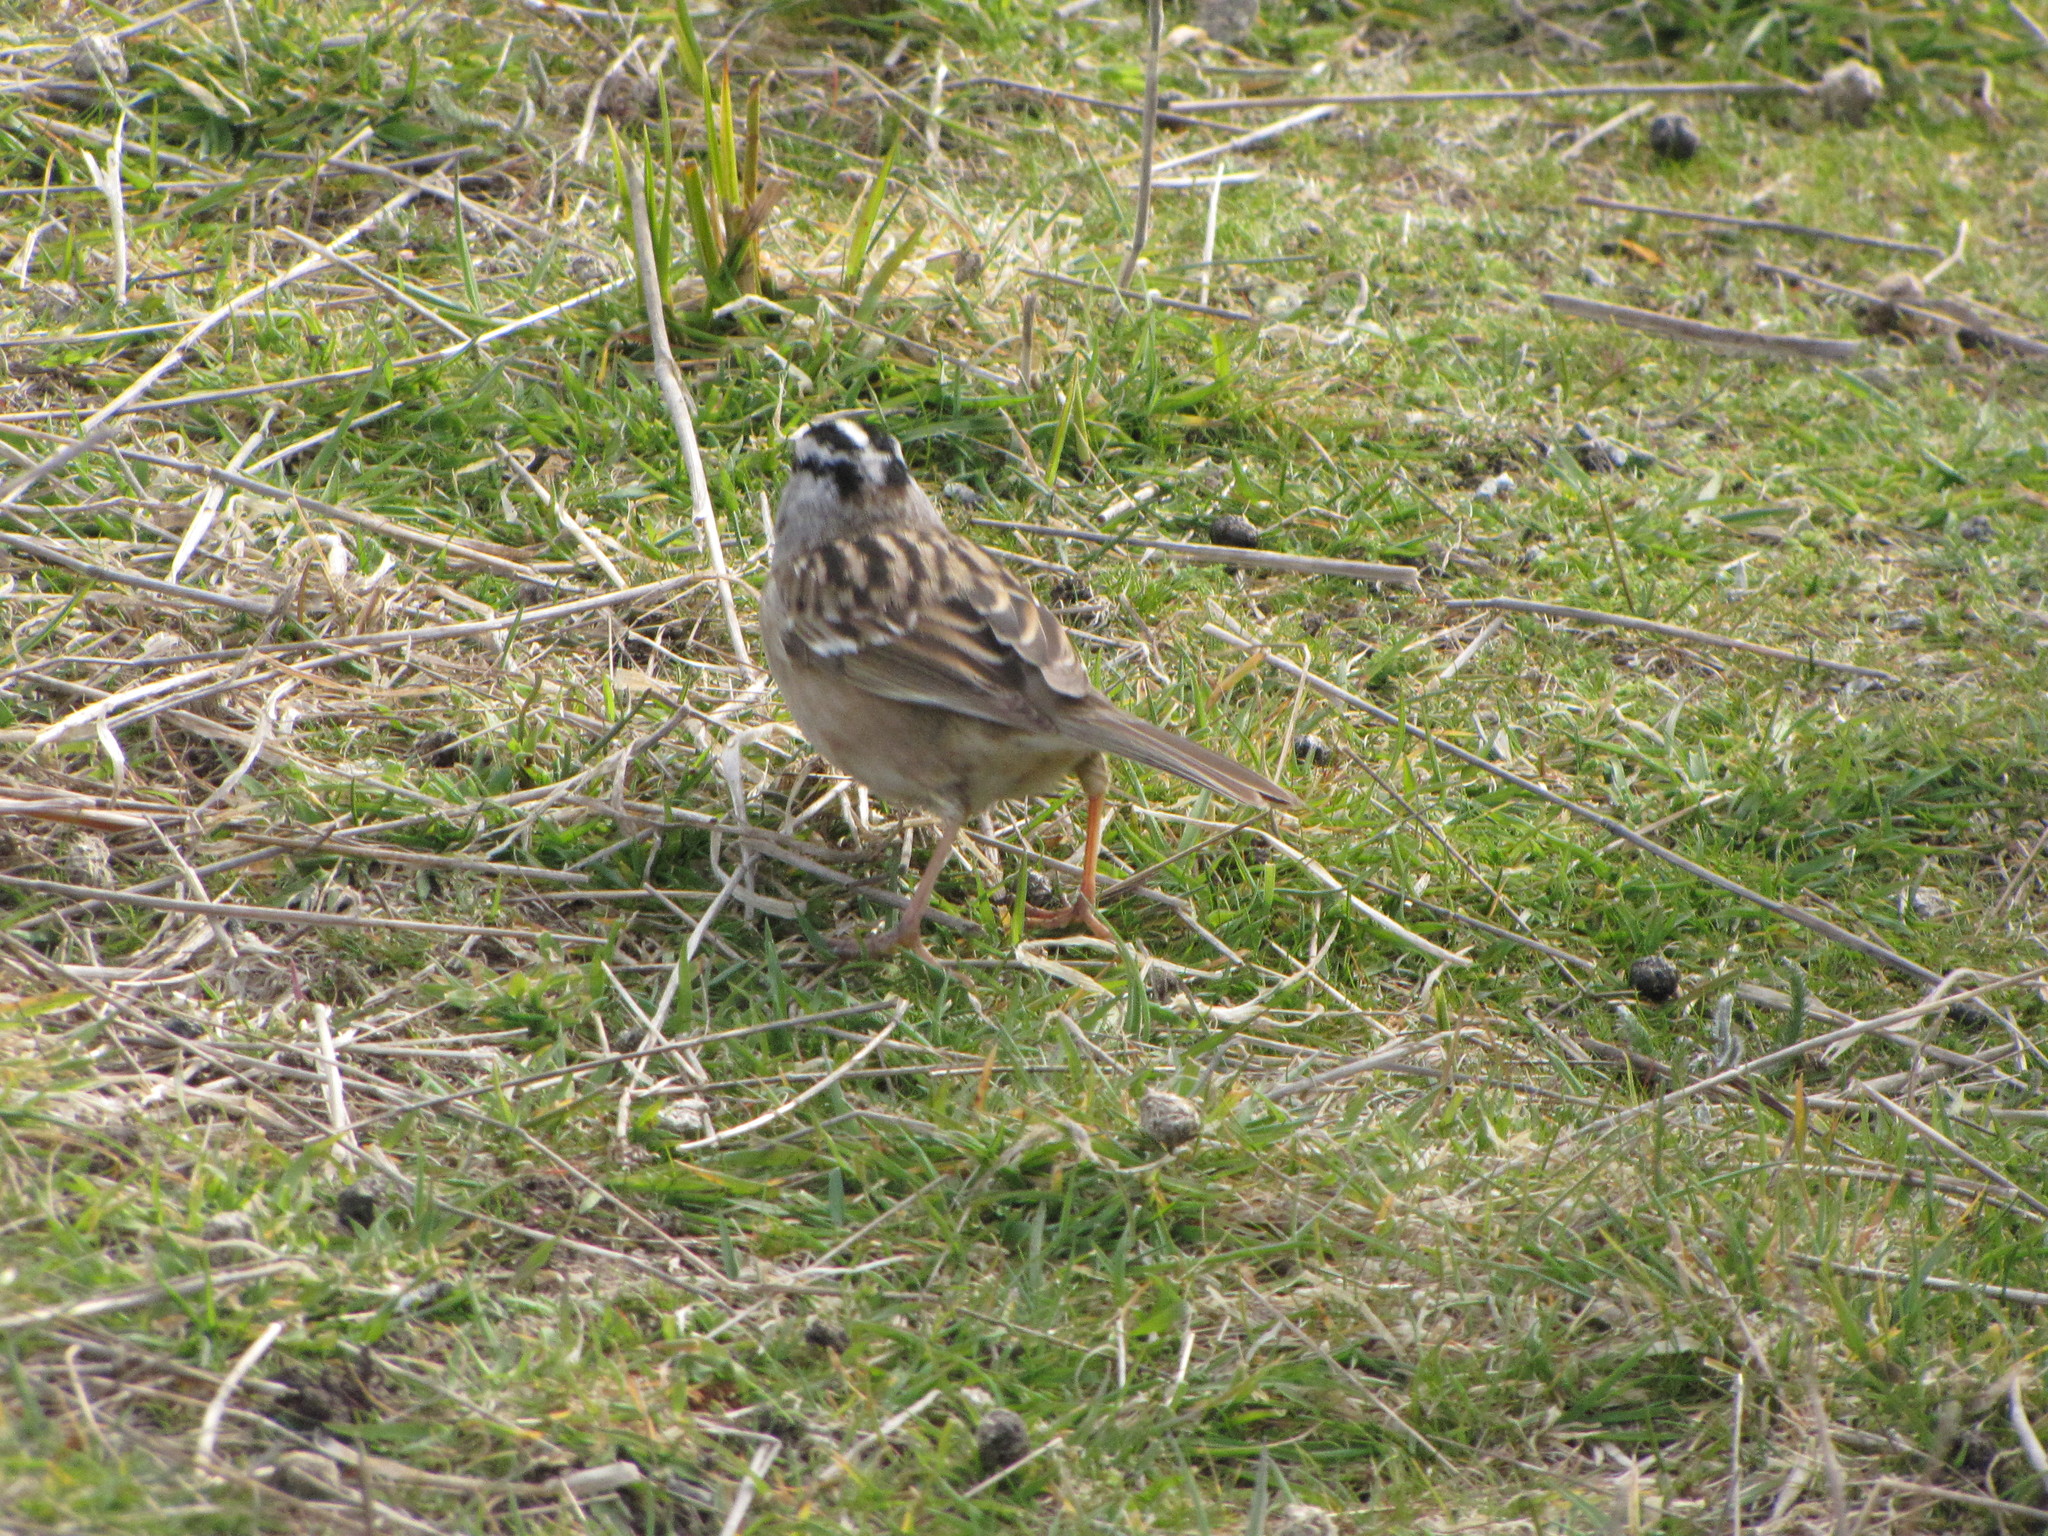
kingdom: Animalia
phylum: Chordata
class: Aves
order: Passeriformes
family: Passerellidae
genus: Zonotrichia
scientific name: Zonotrichia leucophrys
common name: White-crowned sparrow
